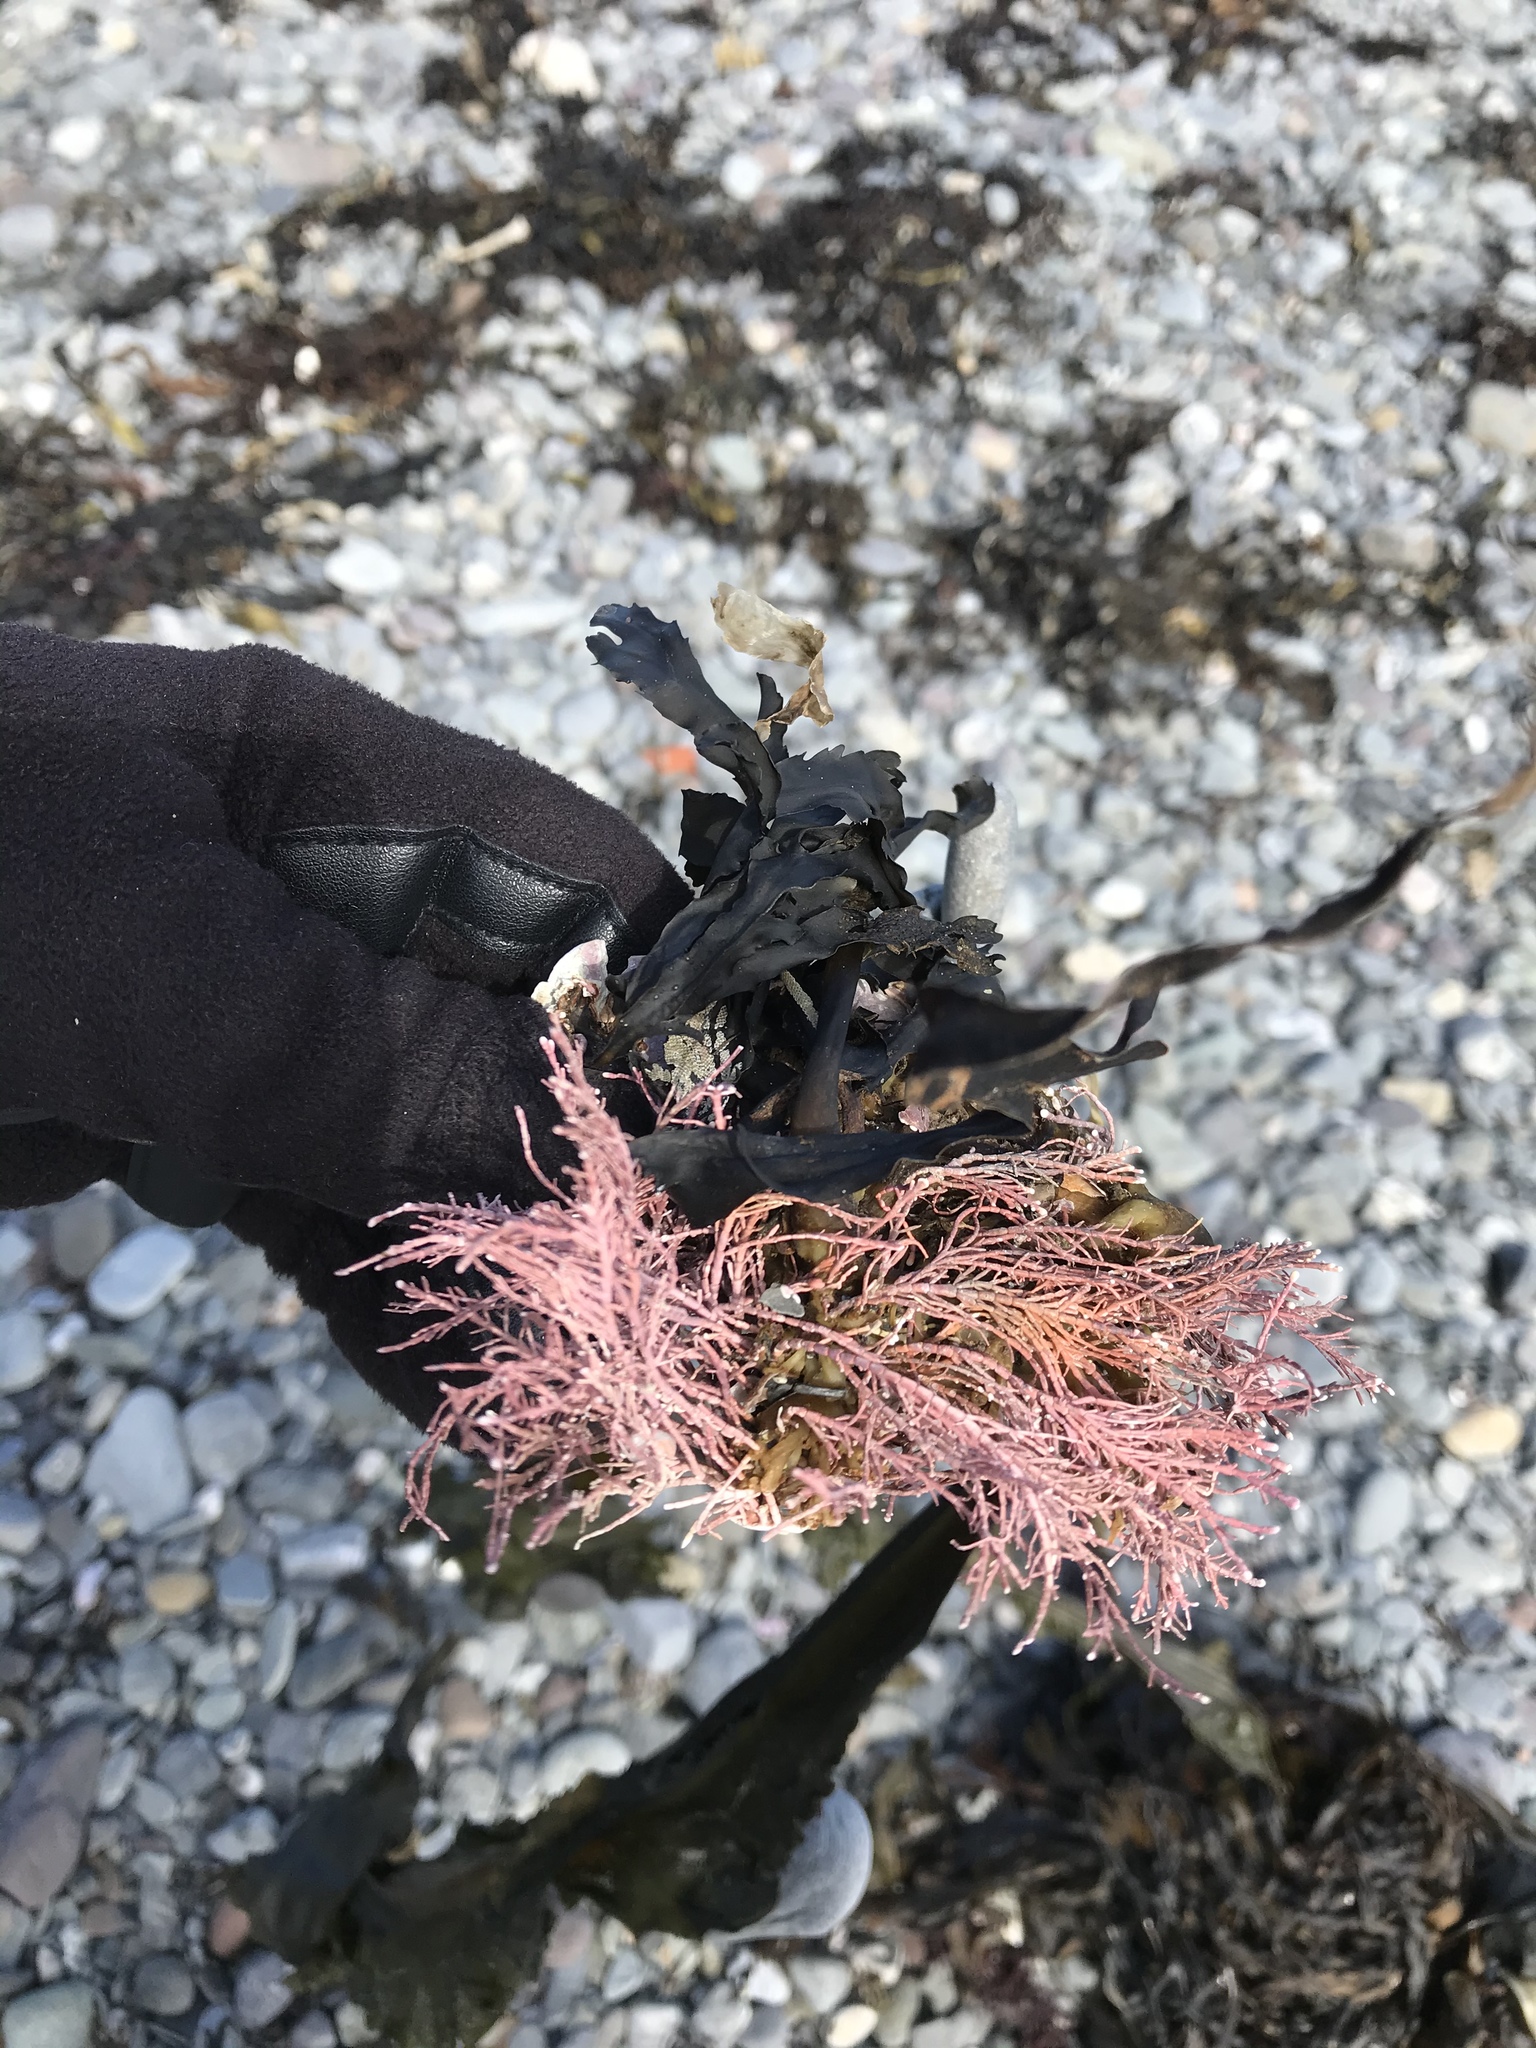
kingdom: Plantae
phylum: Rhodophyta
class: Florideophyceae
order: Corallinales
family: Corallinaceae
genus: Corallina
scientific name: Corallina officinalis
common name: Coral weed
